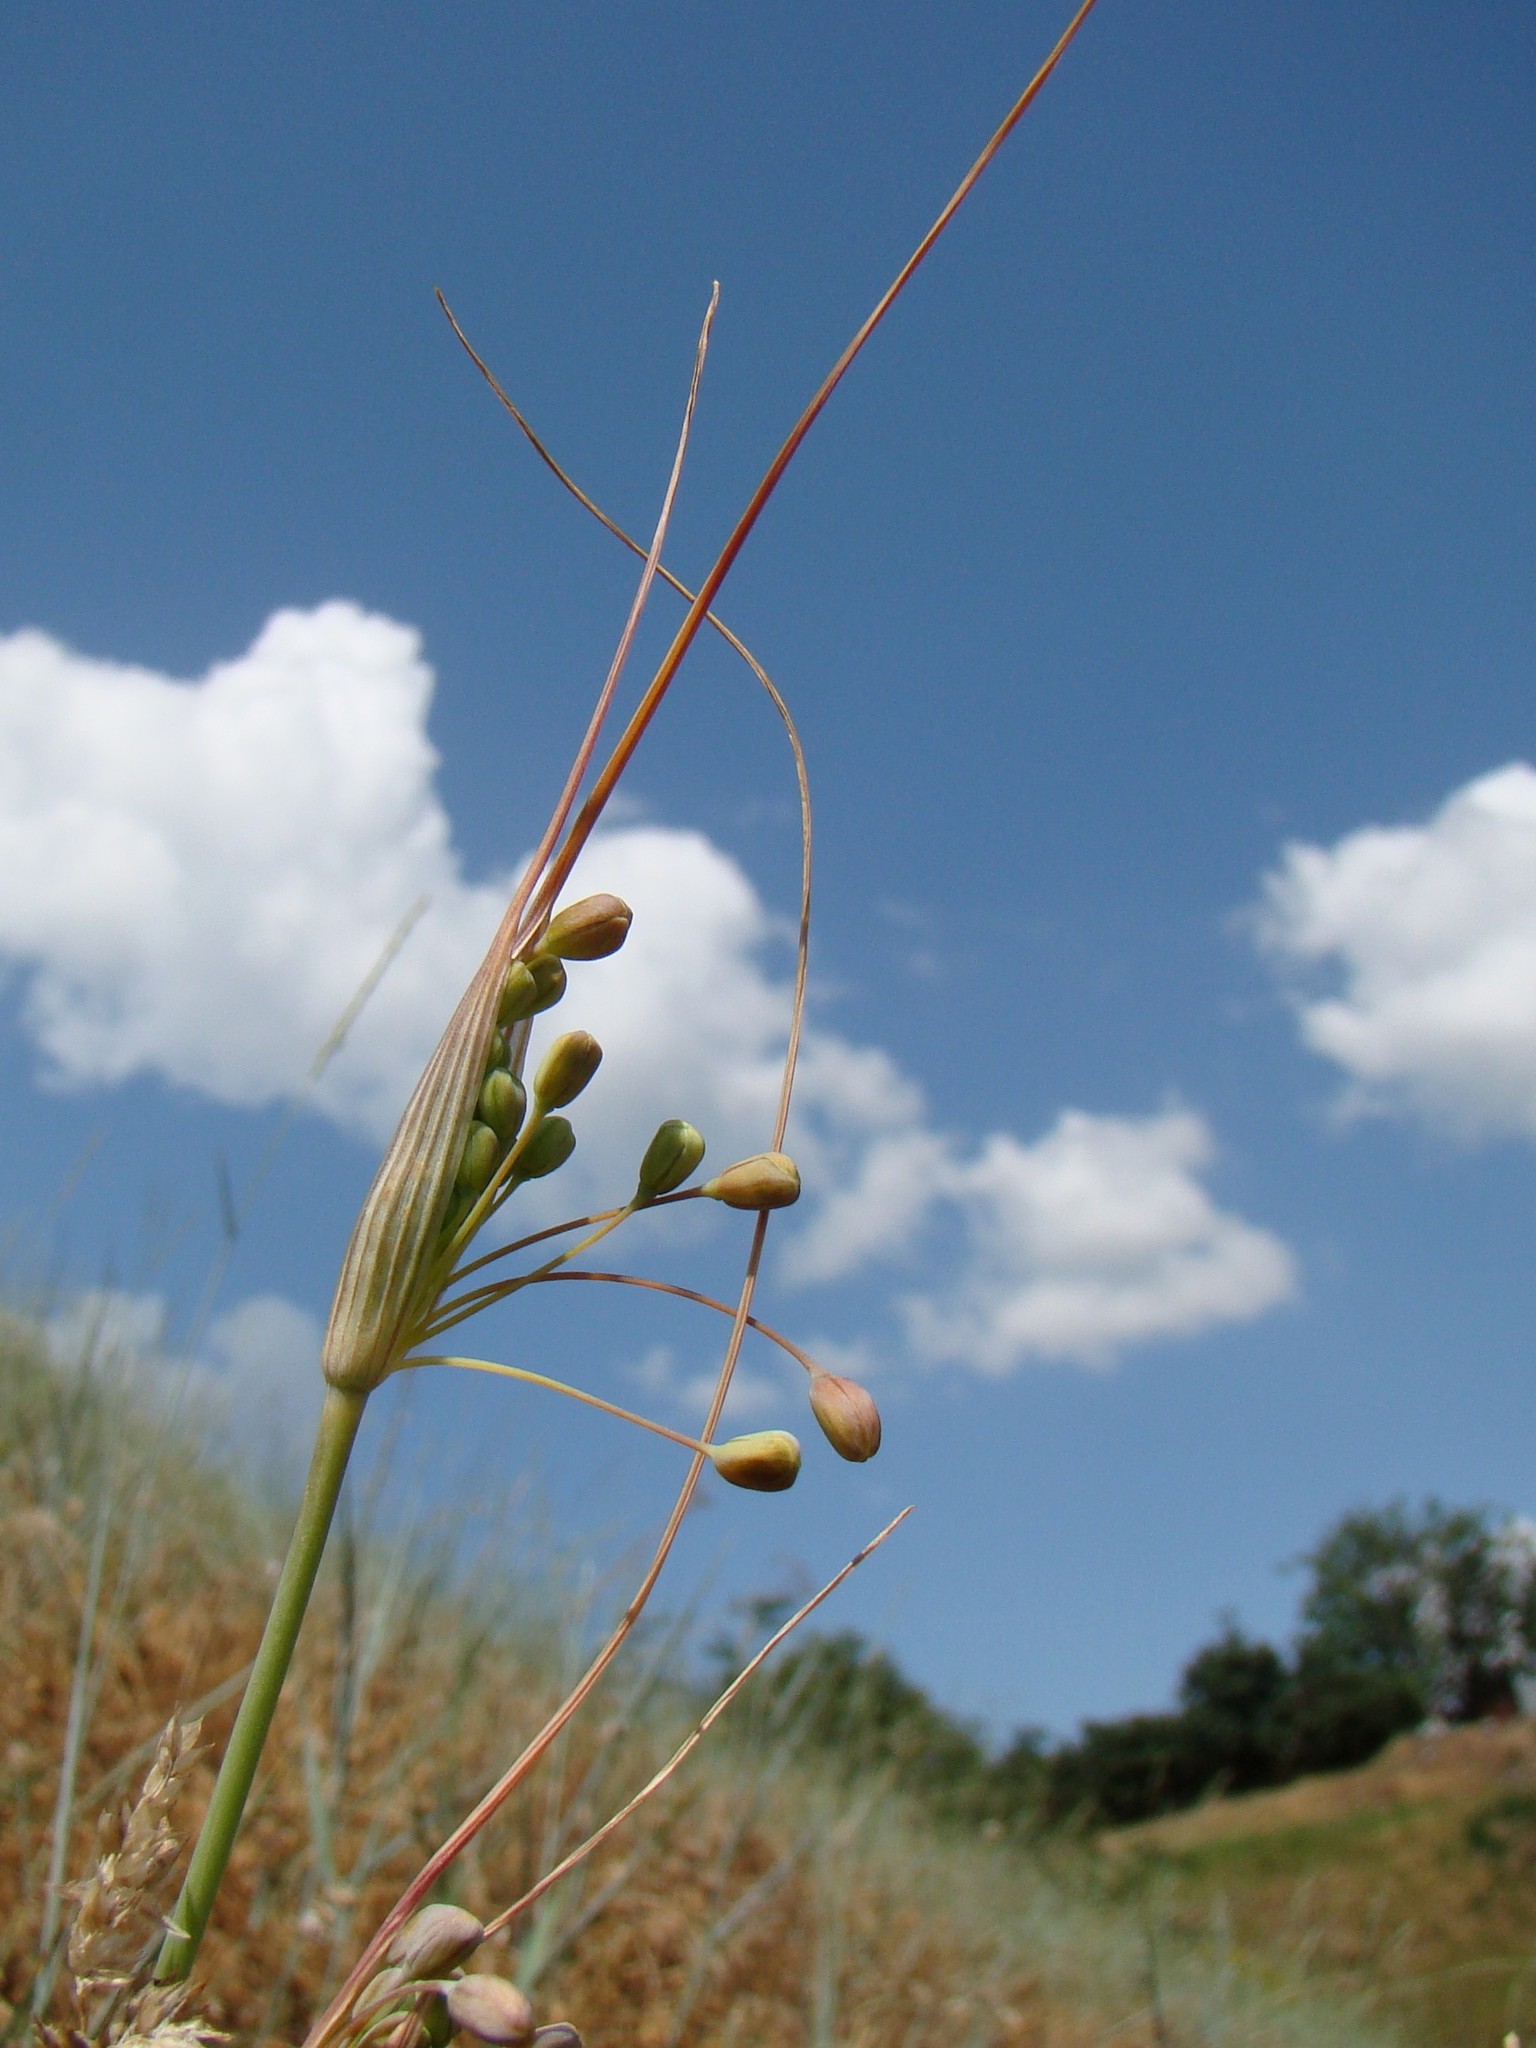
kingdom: Plantae
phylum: Tracheophyta
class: Liliopsida
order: Asparagales
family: Amaryllidaceae
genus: Allium
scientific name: Allium flavum
